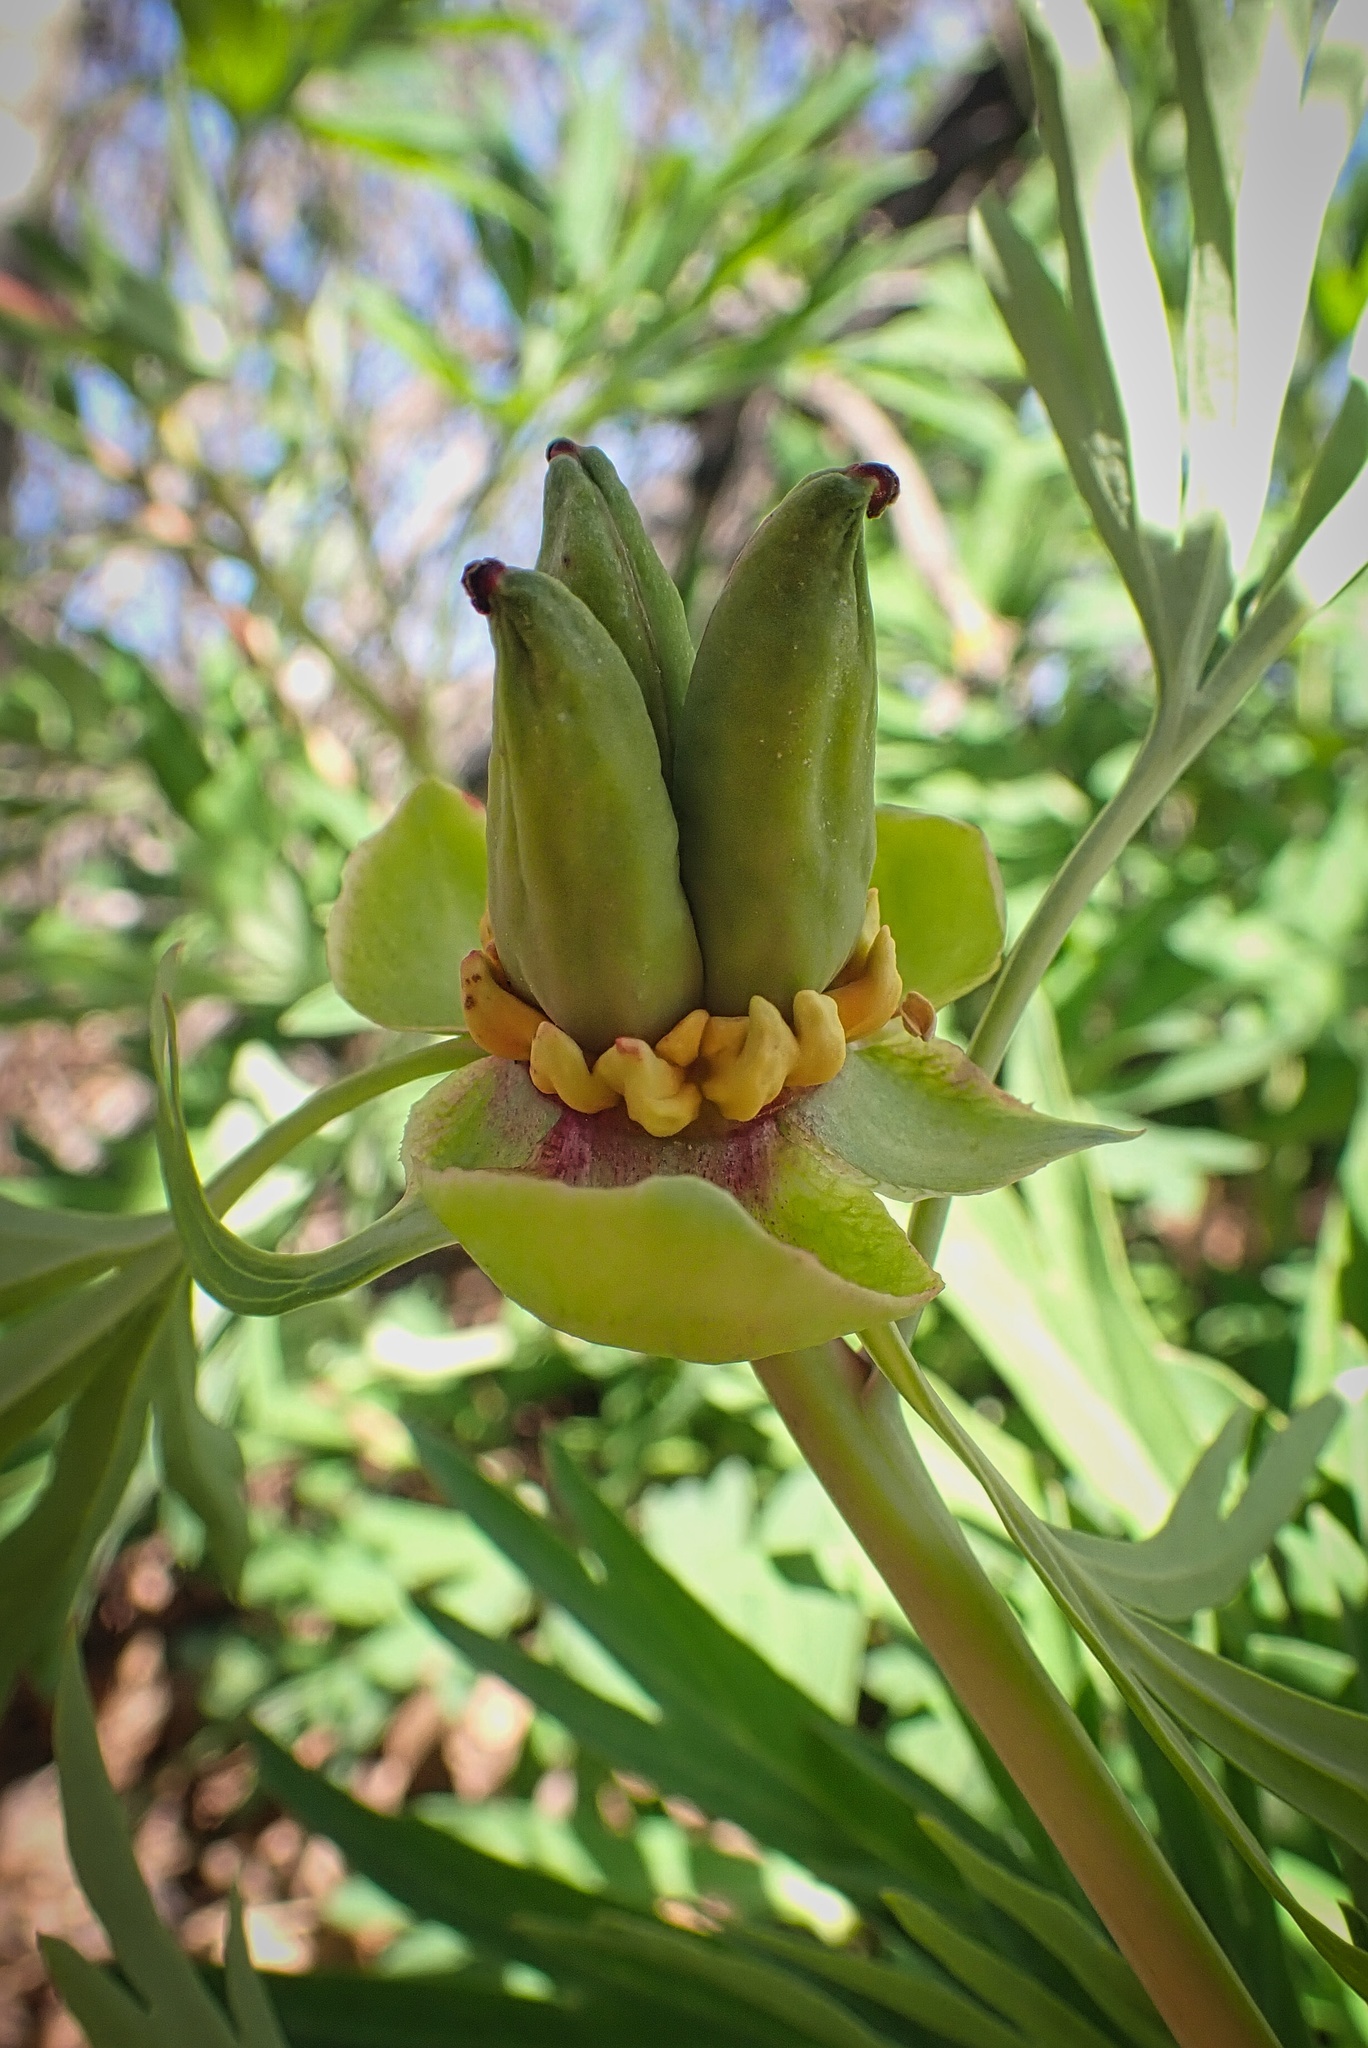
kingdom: Plantae
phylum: Tracheophyta
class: Magnoliopsida
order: Saxifragales
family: Paeoniaceae
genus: Paeonia
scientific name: Paeonia californica
